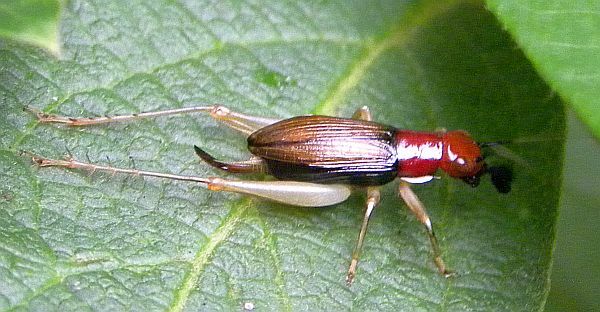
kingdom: Animalia
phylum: Arthropoda
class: Insecta
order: Orthoptera
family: Trigonidiidae
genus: Phyllopalpus
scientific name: Phyllopalpus pulchellus
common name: Handsome trig
